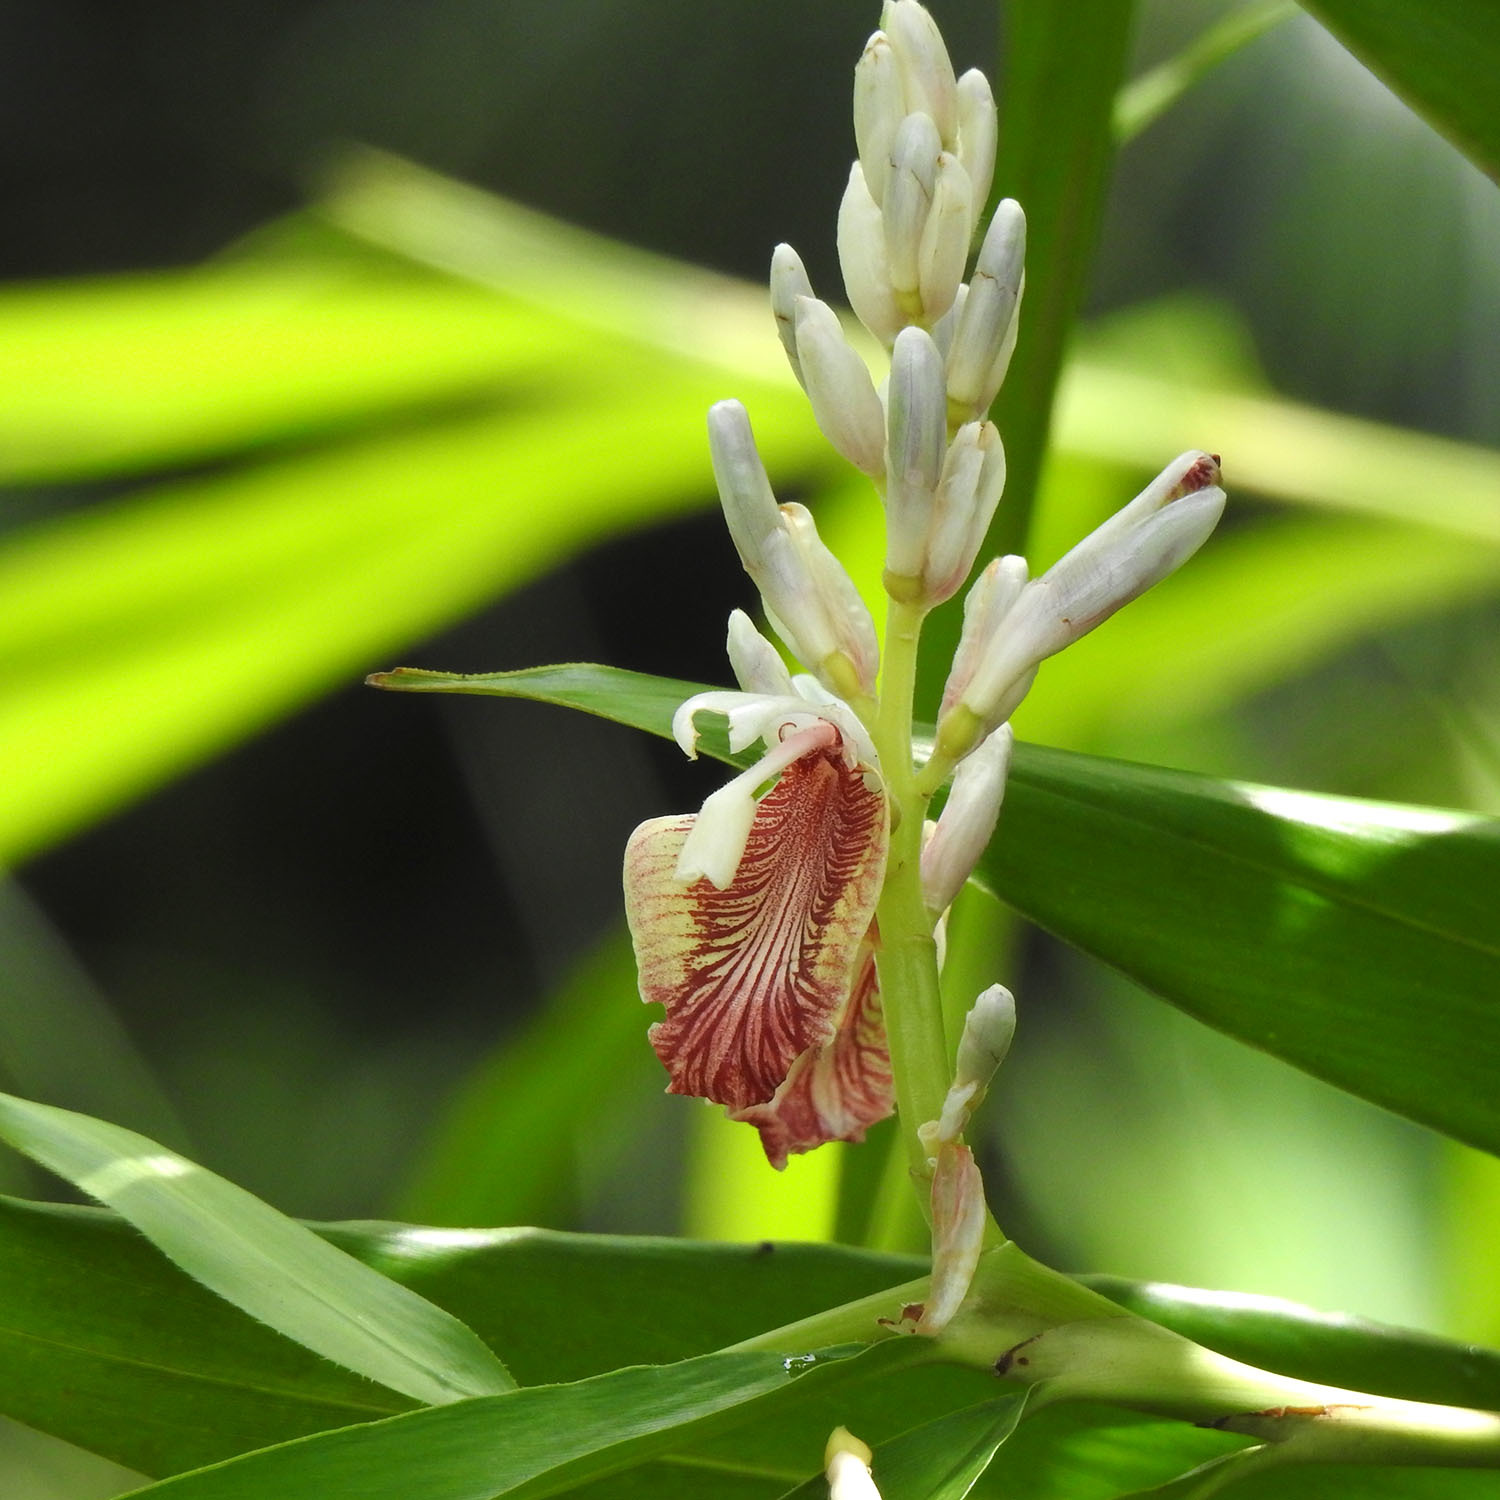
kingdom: Plantae
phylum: Tracheophyta
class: Liliopsida
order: Zingiberales
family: Zingiberaceae
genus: Alpinia
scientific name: Alpinia calcarata
